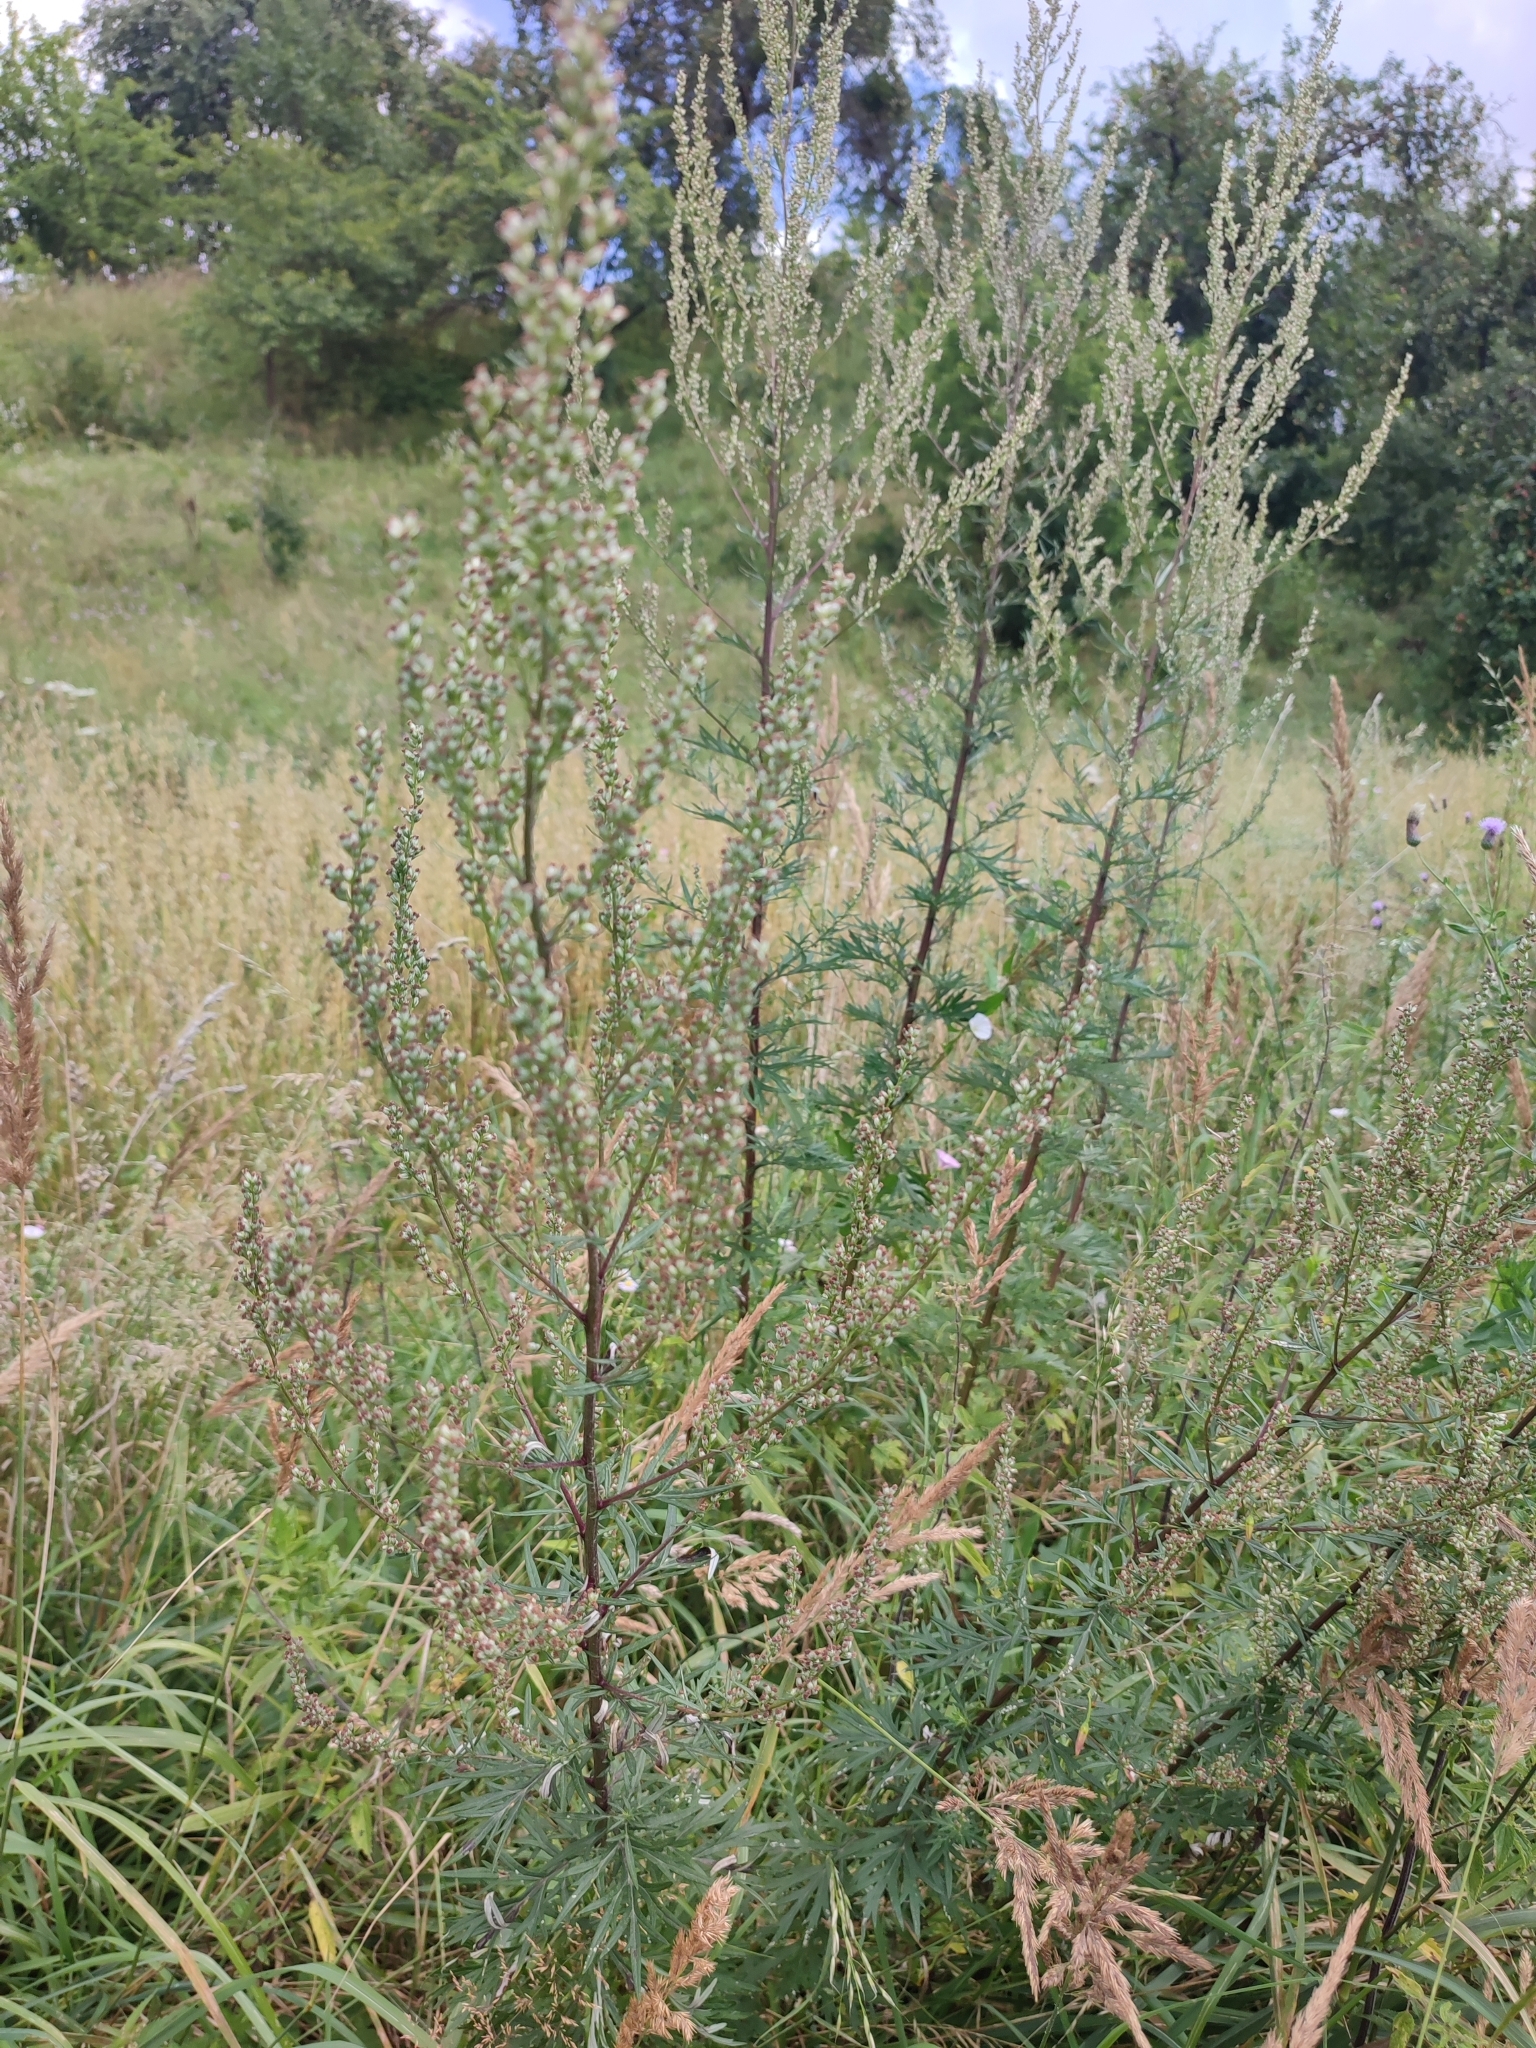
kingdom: Plantae
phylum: Tracheophyta
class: Magnoliopsida
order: Asterales
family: Asteraceae
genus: Artemisia
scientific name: Artemisia vulgaris
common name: Mugwort
